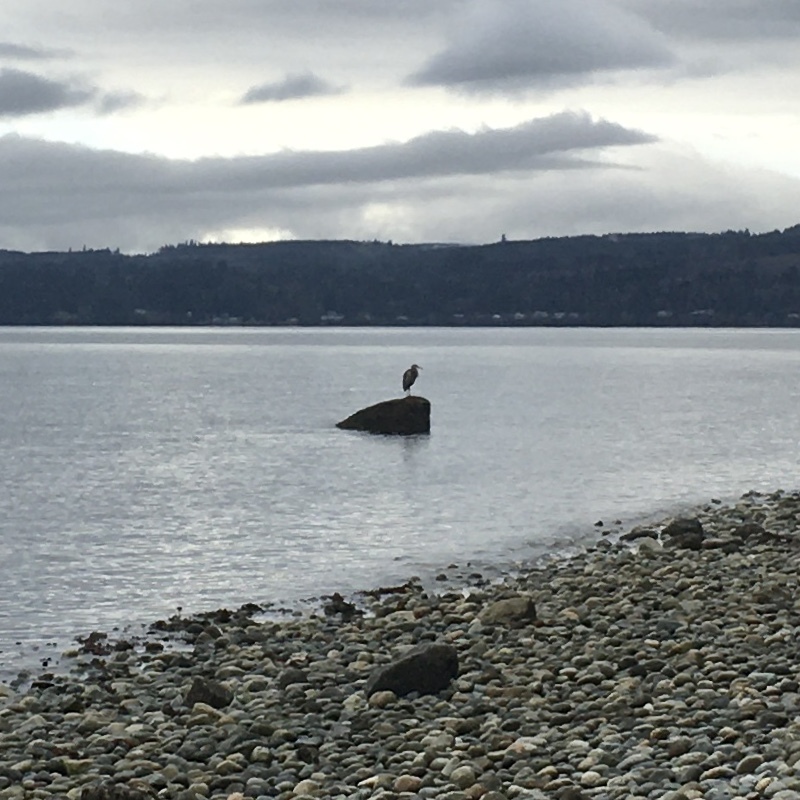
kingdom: Animalia
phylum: Chordata
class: Aves
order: Pelecaniformes
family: Ardeidae
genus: Ardea
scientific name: Ardea herodias
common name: Great blue heron
